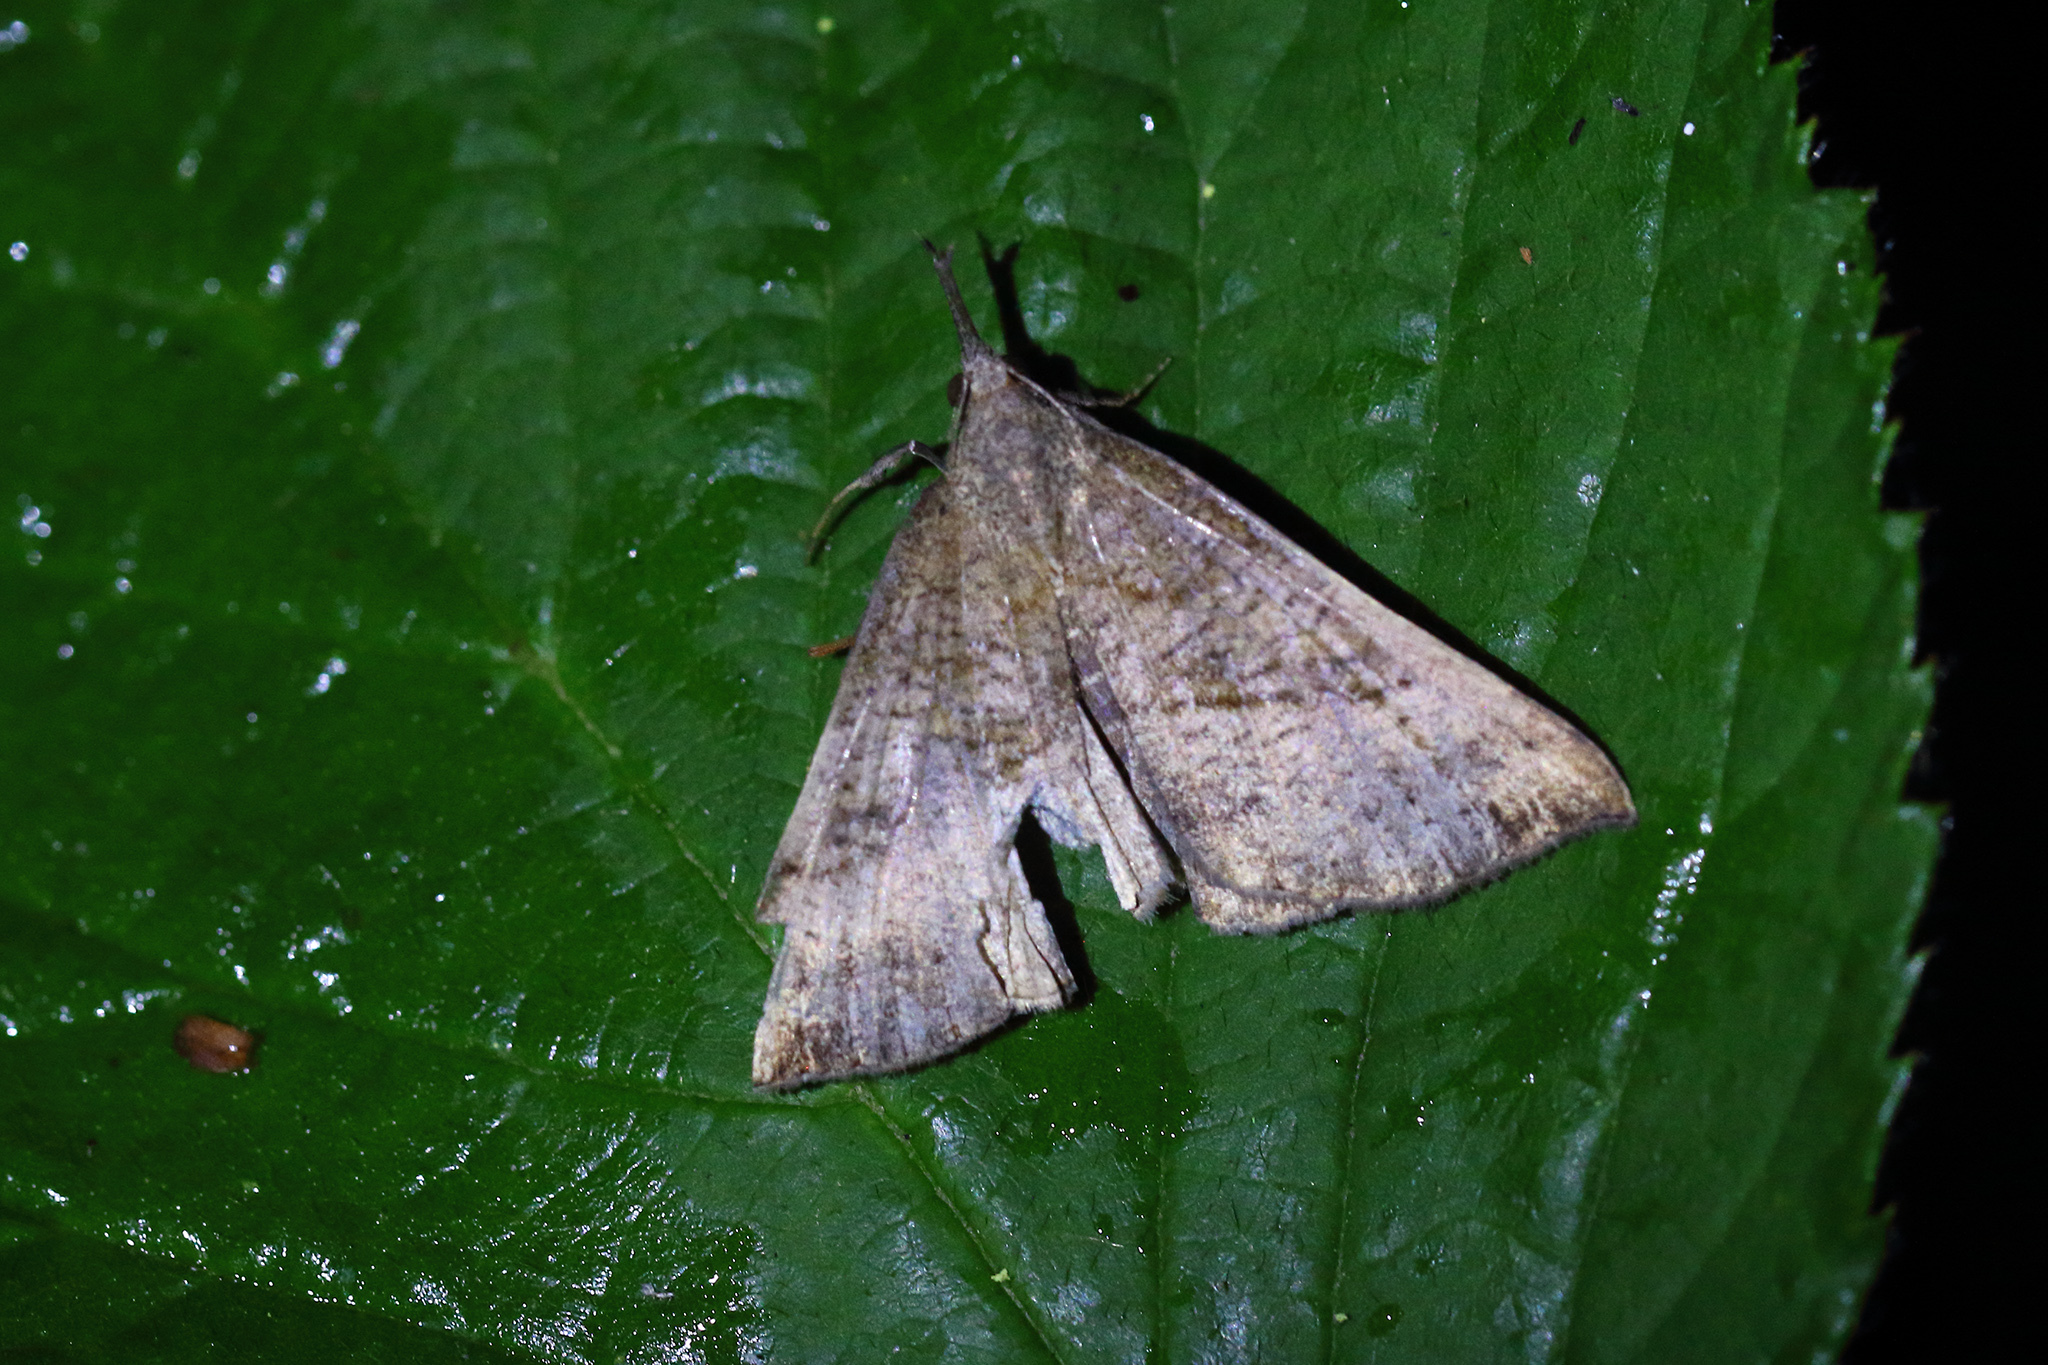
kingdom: Animalia
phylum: Arthropoda
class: Insecta
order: Lepidoptera
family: Erebidae
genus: Hypena
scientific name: Hypena proboscidalis
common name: Snout
